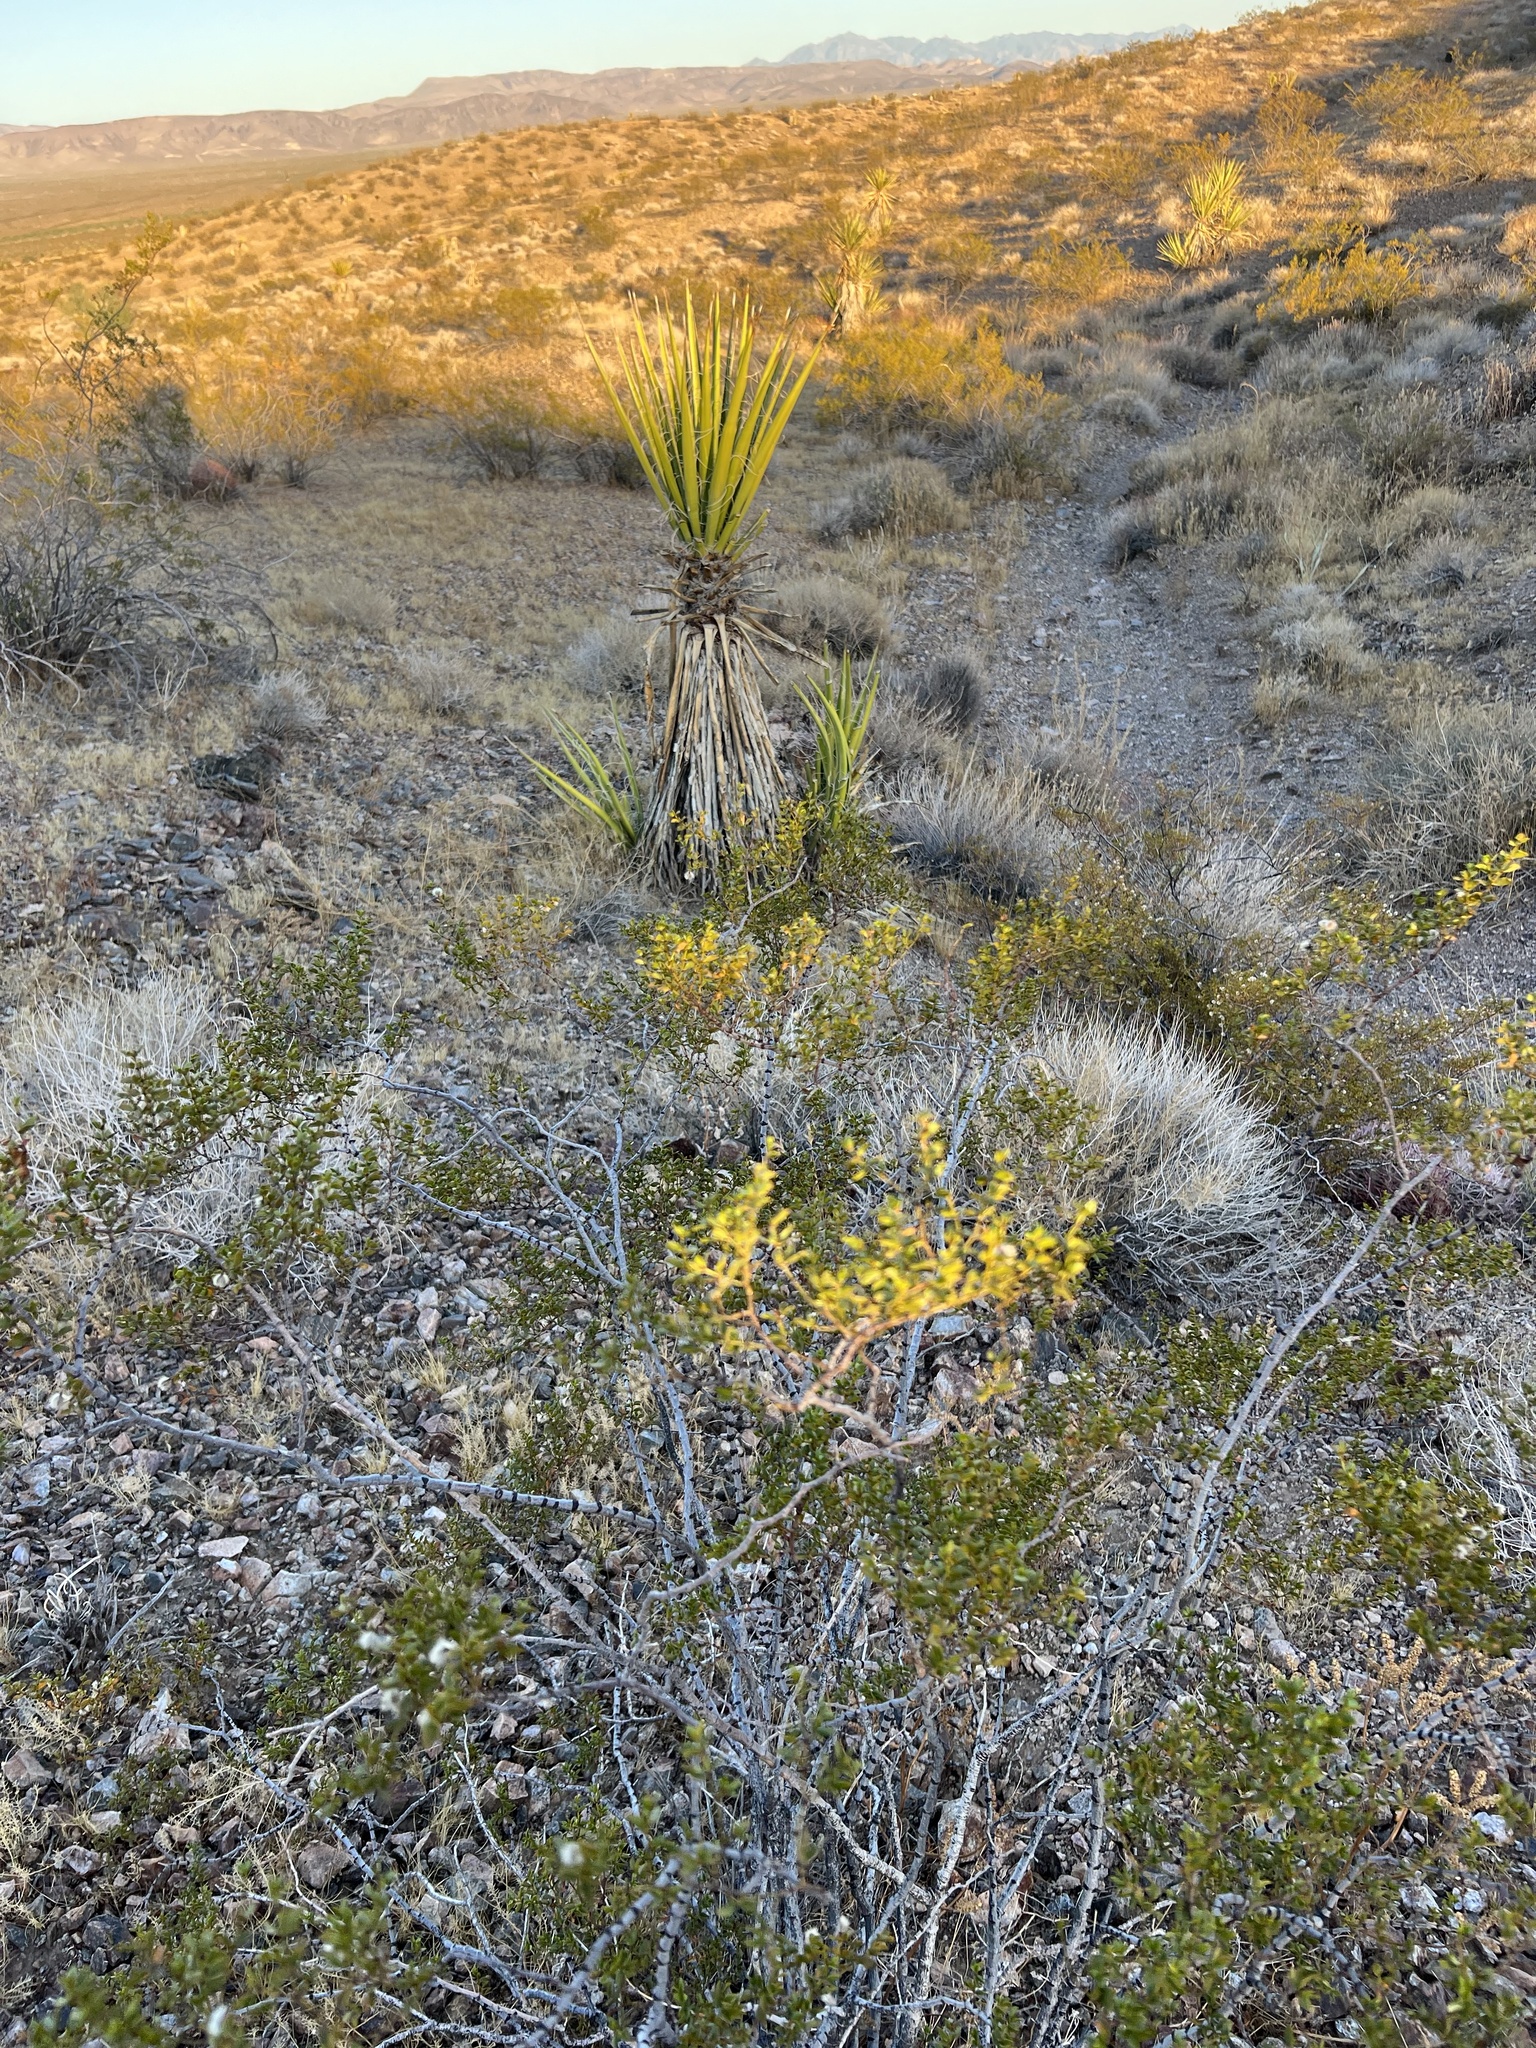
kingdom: Plantae
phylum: Tracheophyta
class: Magnoliopsida
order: Zygophyllales
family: Zygophyllaceae
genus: Larrea
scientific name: Larrea tridentata
